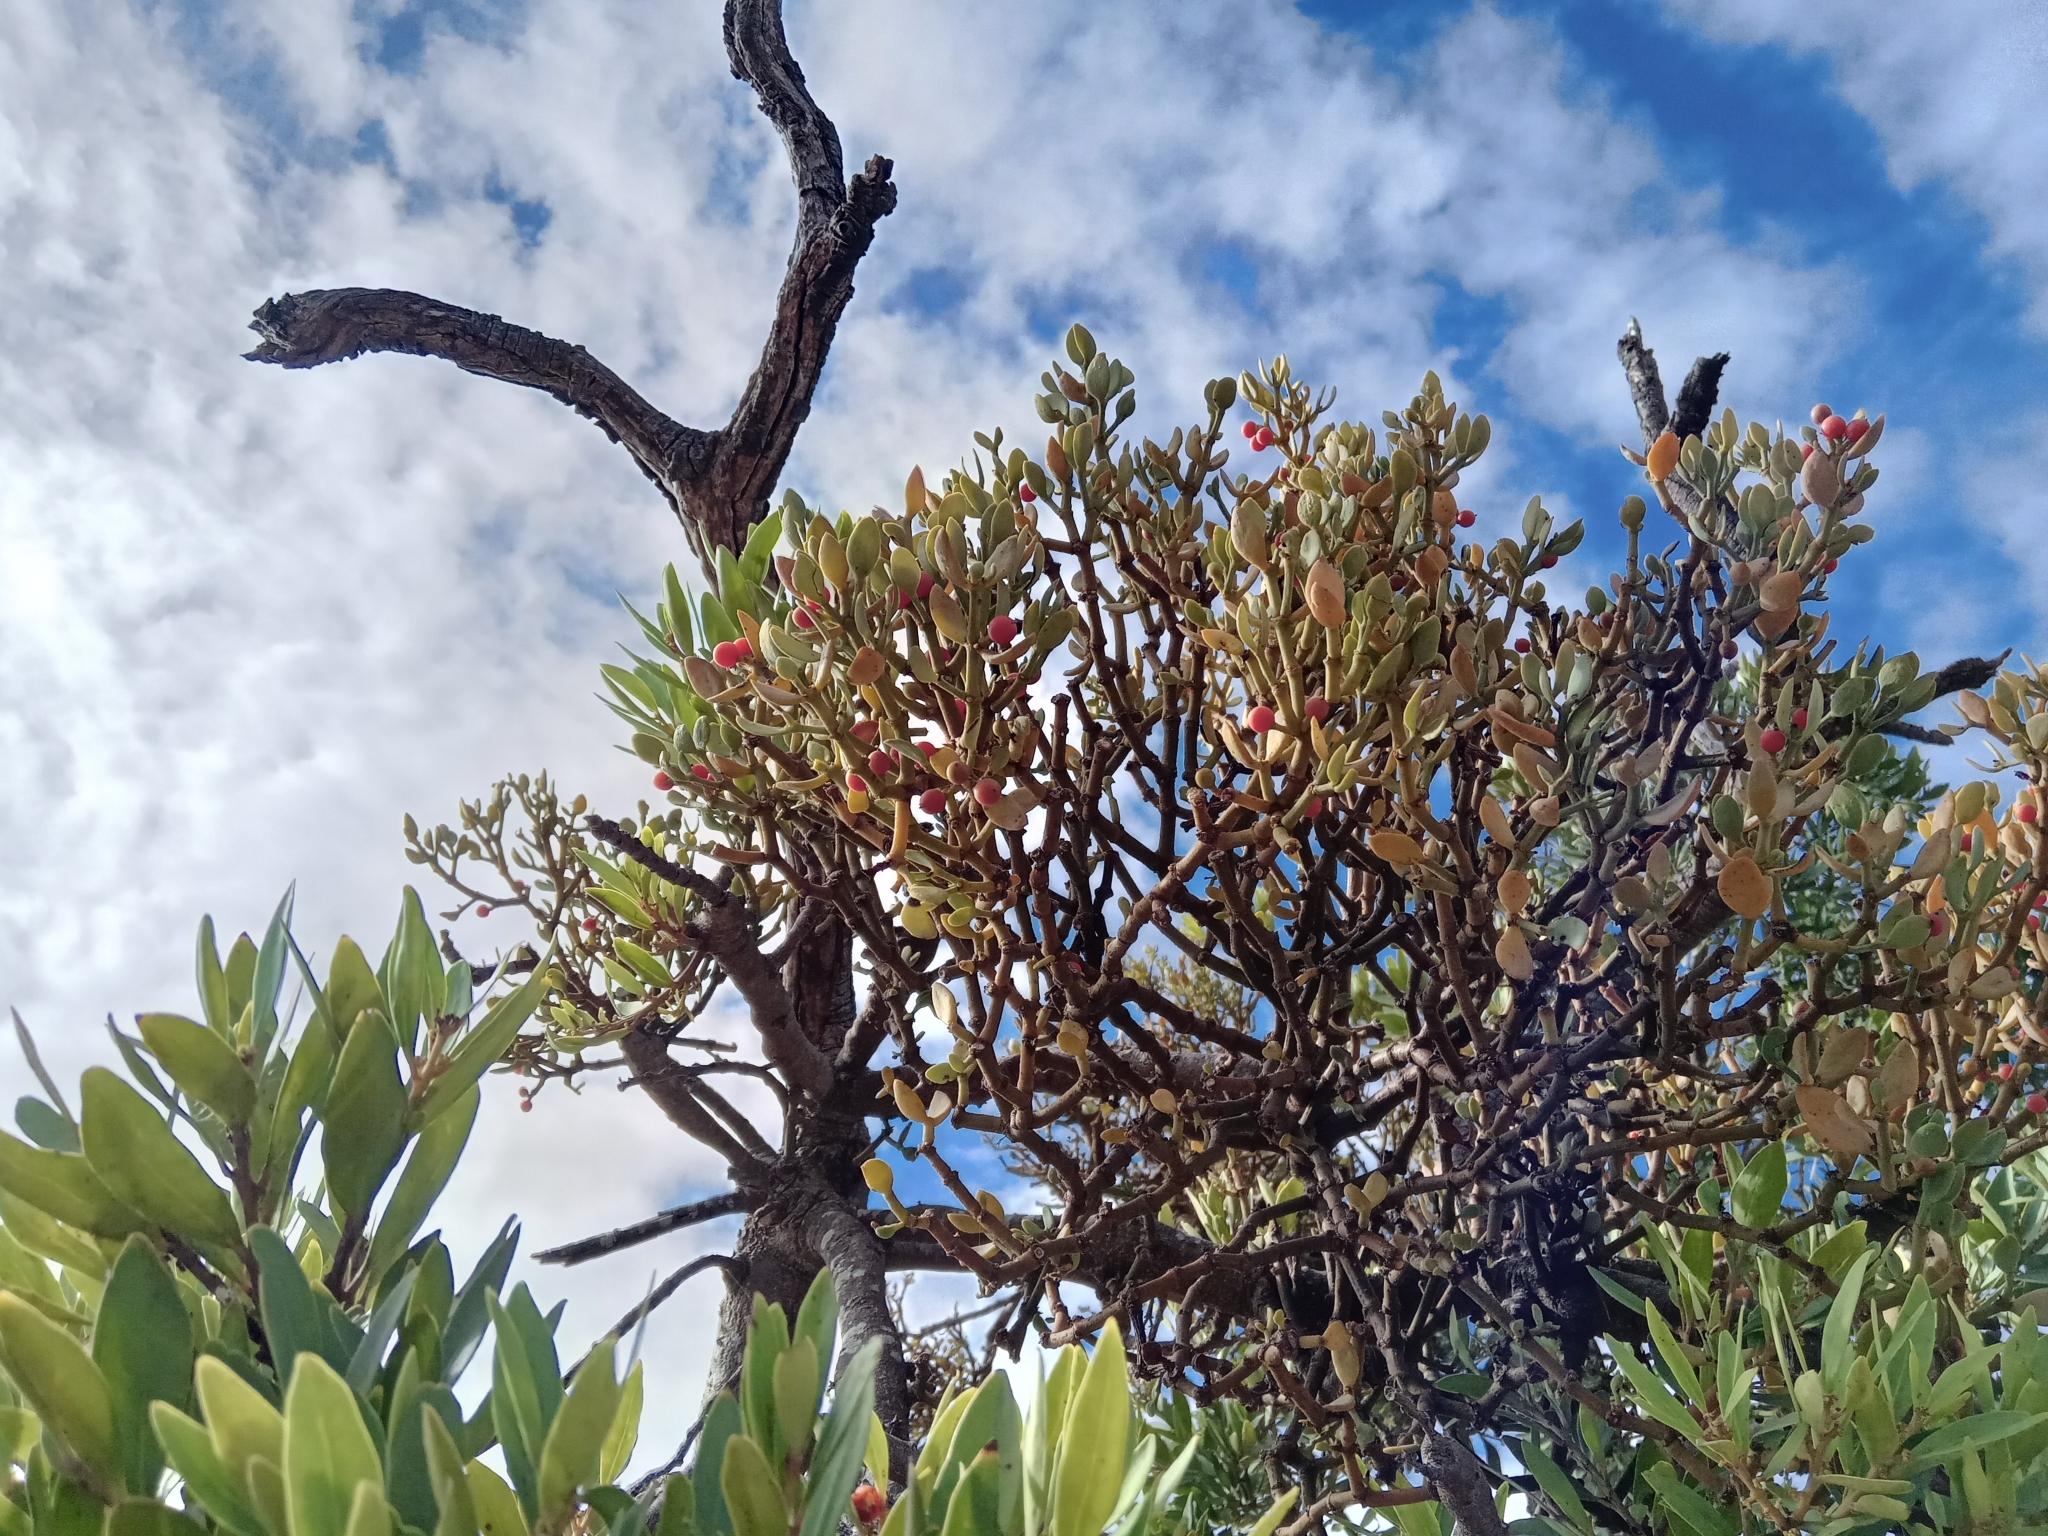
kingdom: Plantae
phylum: Tracheophyta
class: Magnoliopsida
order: Santalales
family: Viscaceae
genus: Viscum
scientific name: Viscum rotundifolium
